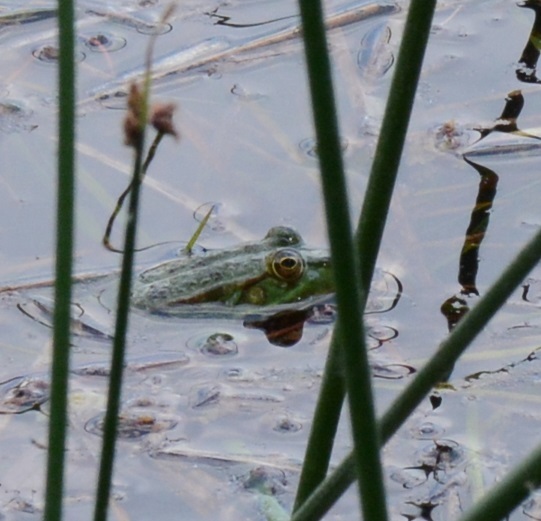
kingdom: Animalia
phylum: Chordata
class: Amphibia
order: Anura
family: Ranidae
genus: Pelophylax
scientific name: Pelophylax ridibundus
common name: Marsh frog
